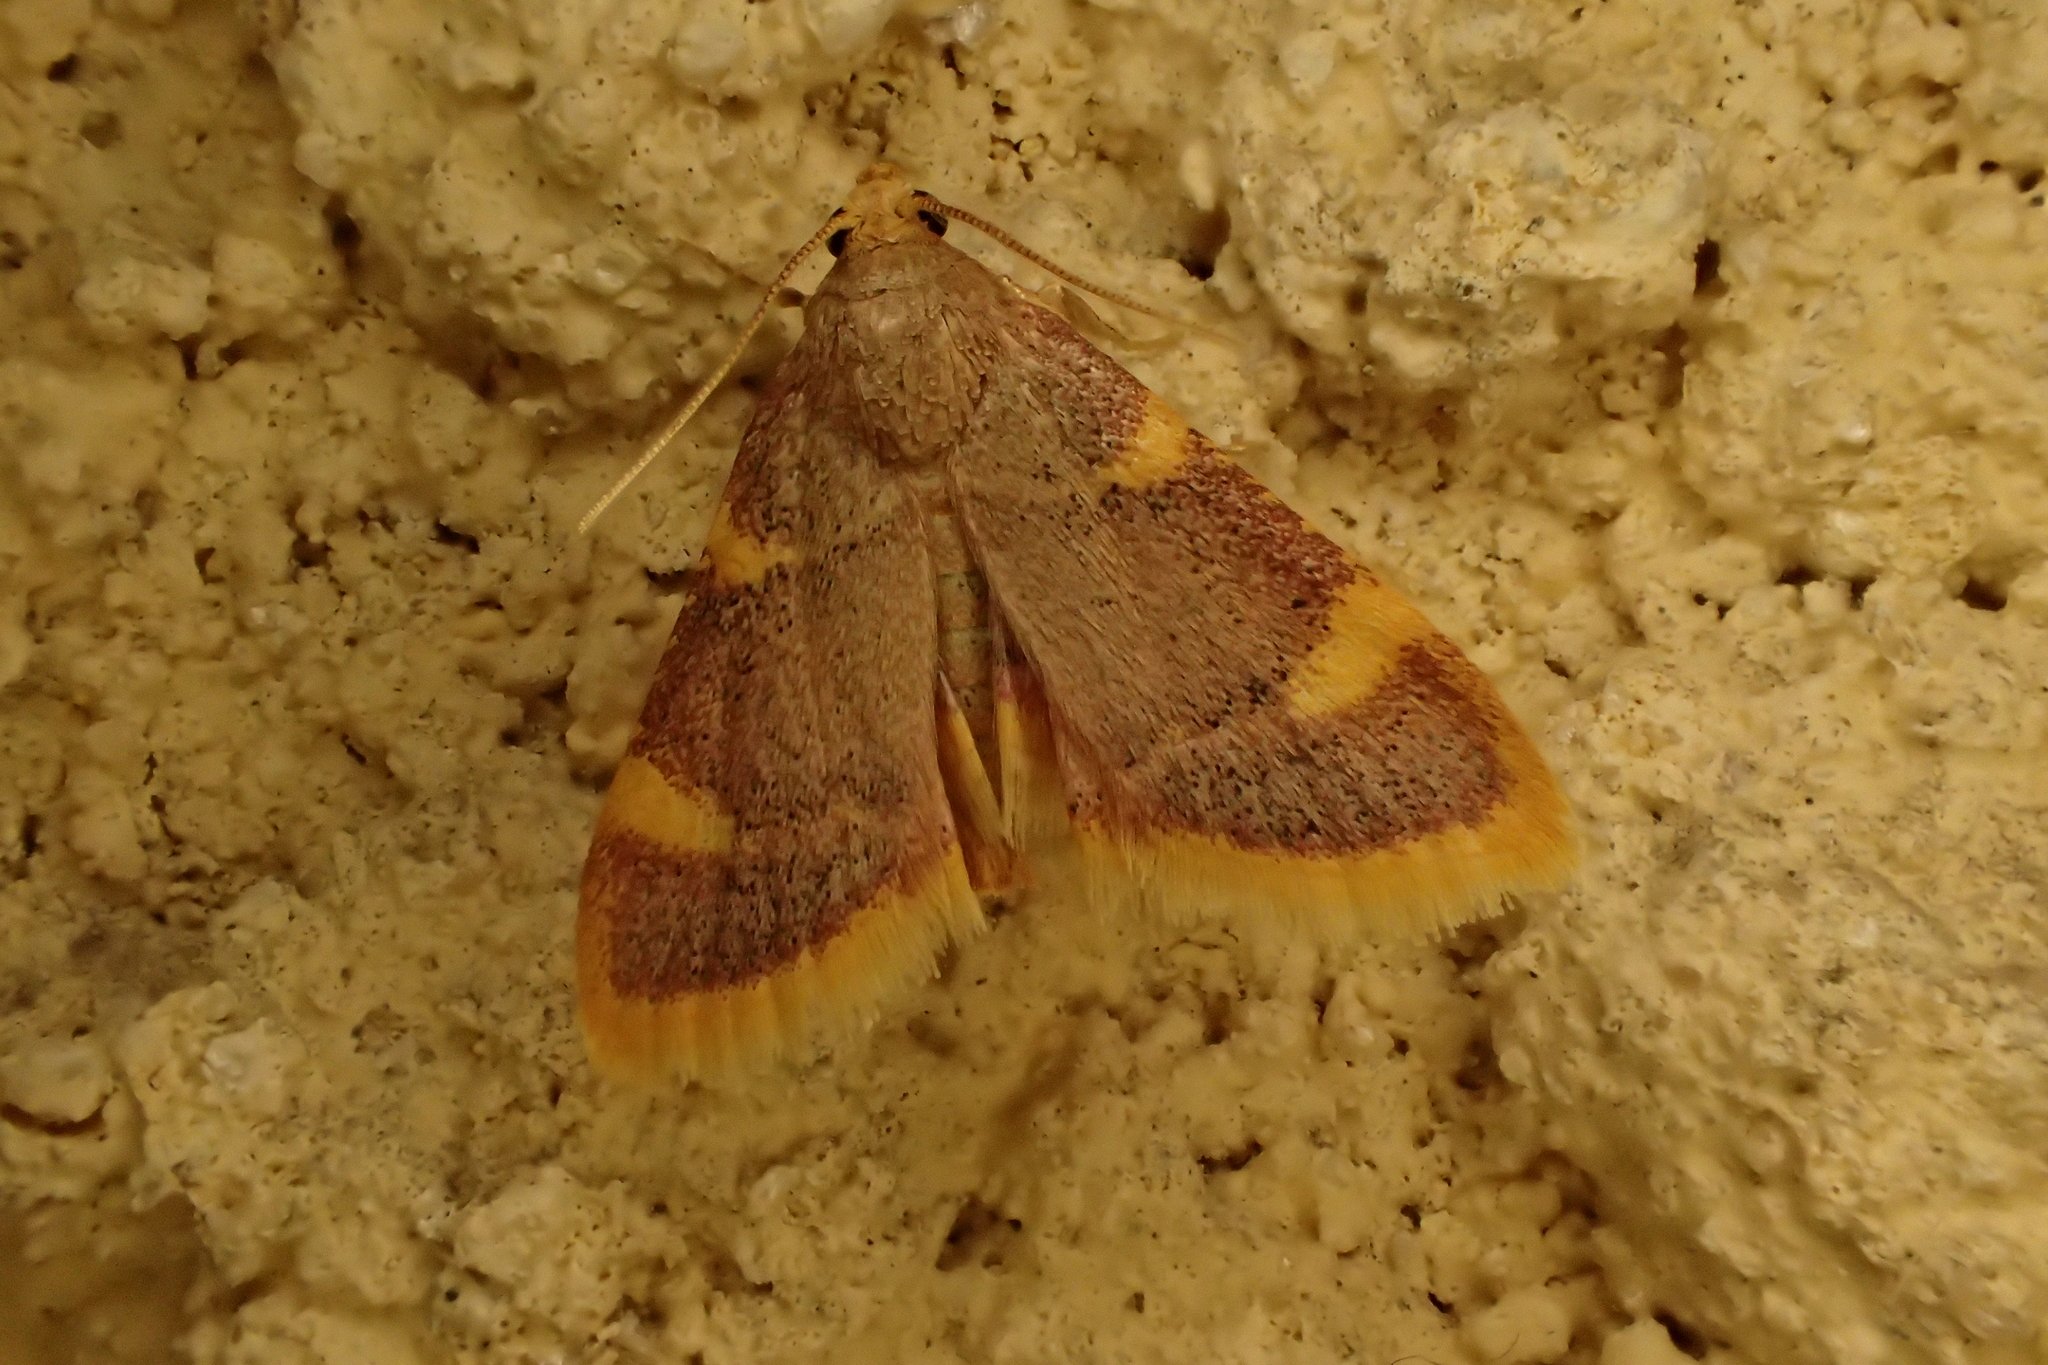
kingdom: Animalia
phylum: Arthropoda
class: Insecta
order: Lepidoptera
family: Pyralidae
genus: Hypsopygia
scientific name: Hypsopygia costalis
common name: Gold triangle
